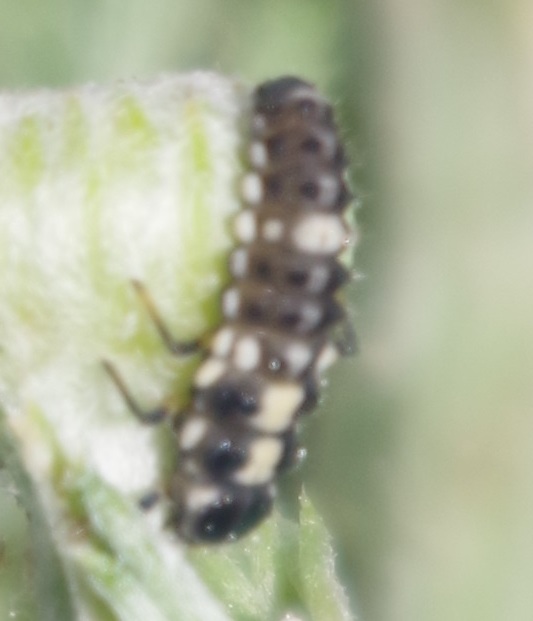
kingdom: Animalia
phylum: Arthropoda
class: Insecta
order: Coleoptera
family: Coccinellidae
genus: Propylaea
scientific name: Propylaea quatuordecimpunctata
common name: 14-spotted ladybird beetle
